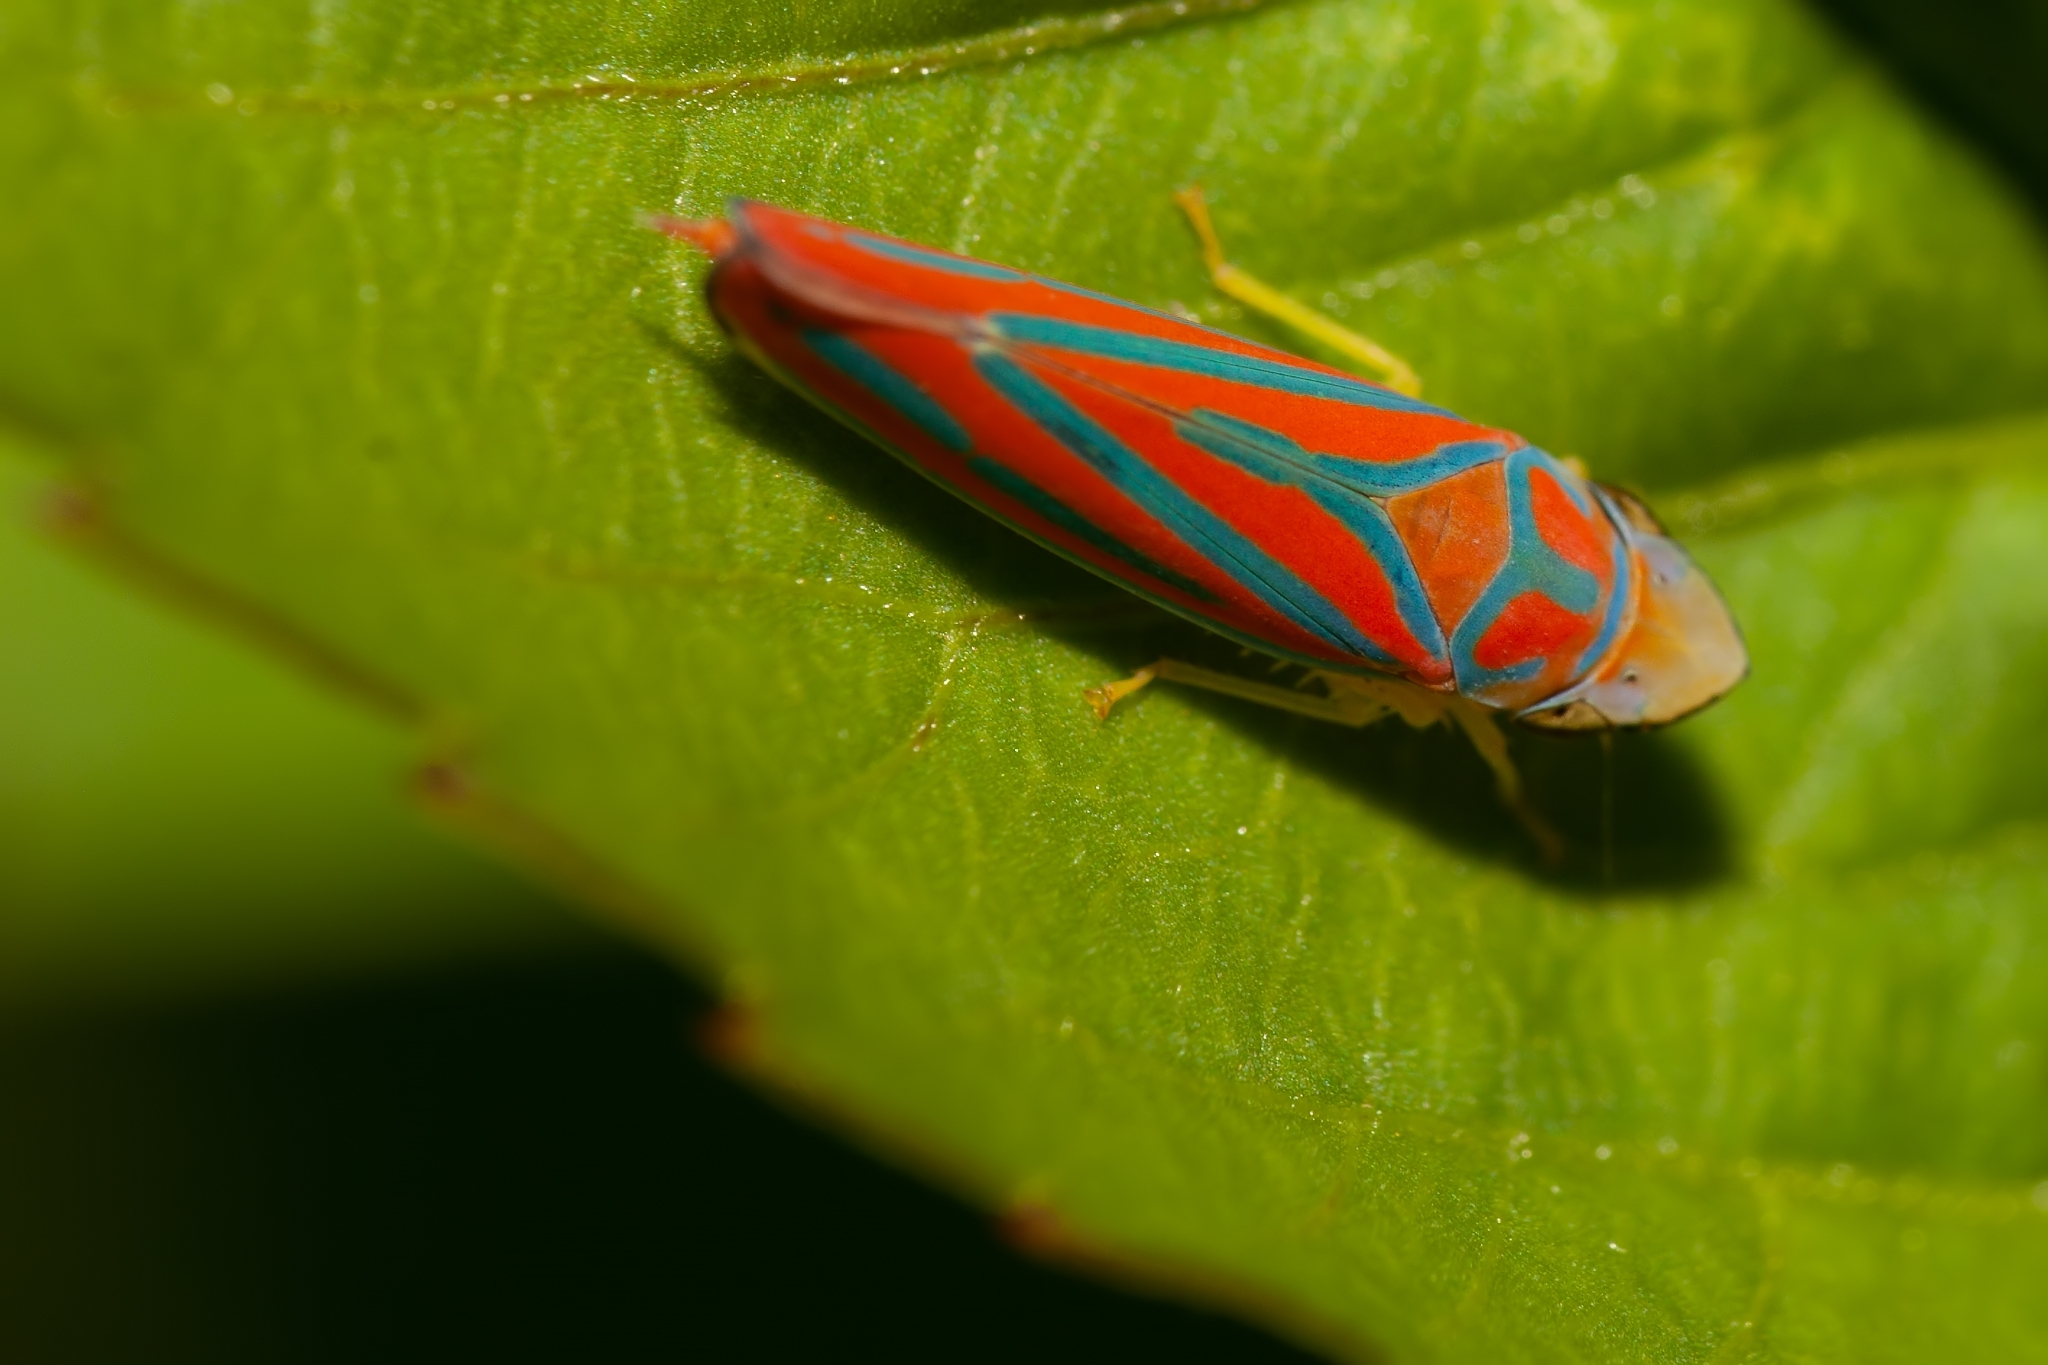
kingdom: Animalia
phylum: Arthropoda
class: Insecta
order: Hemiptera
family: Cicadellidae
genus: Graphocephala
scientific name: Graphocephala coccinea
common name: Candy-striped leafhopper
